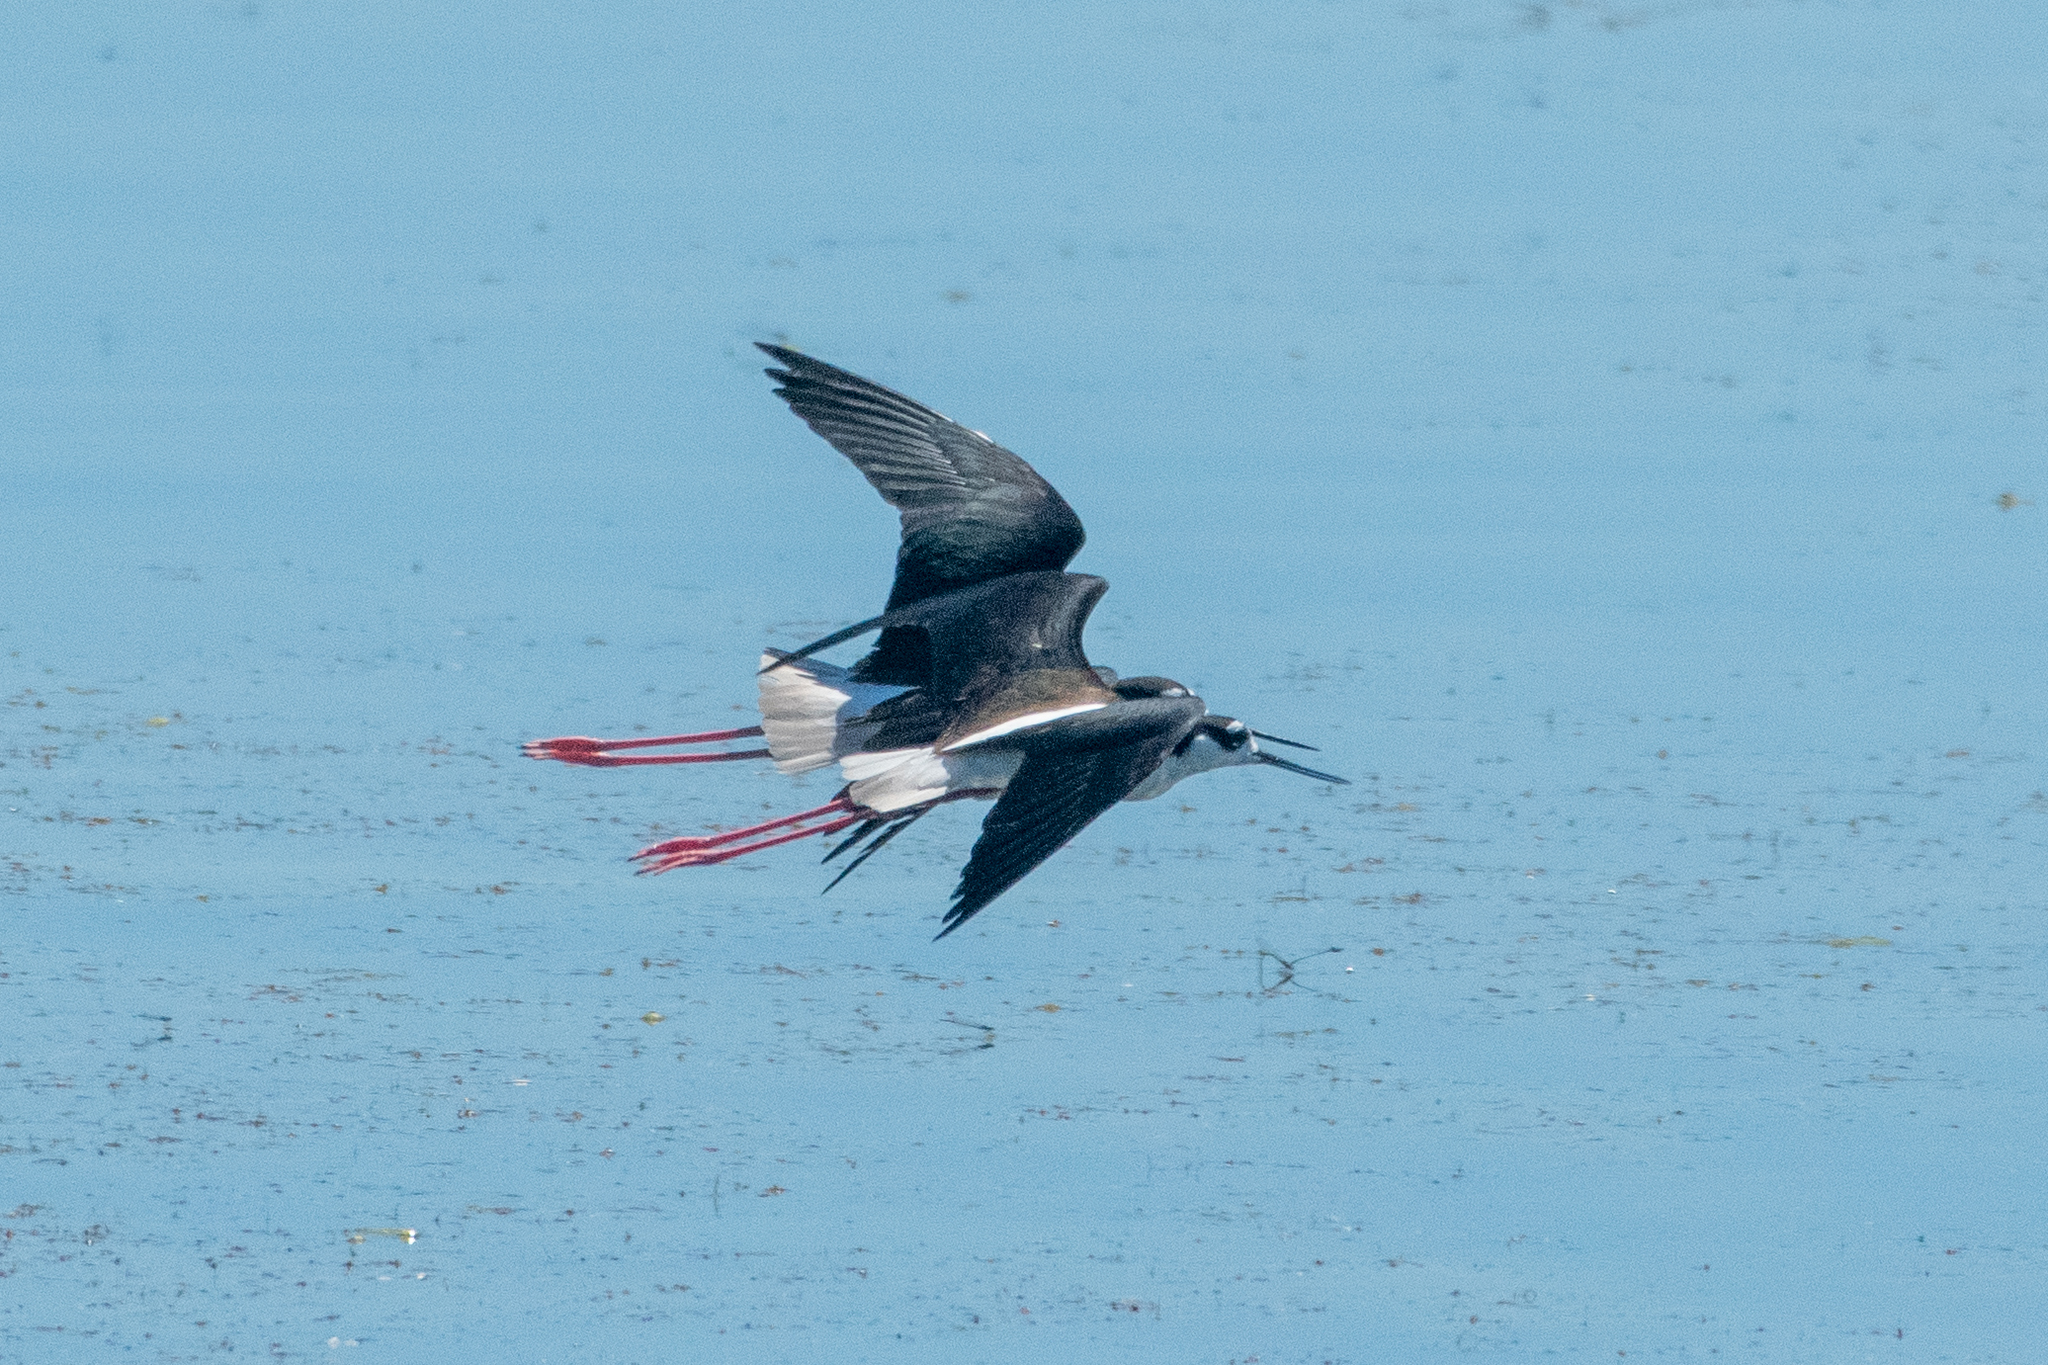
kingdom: Animalia
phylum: Chordata
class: Aves
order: Charadriiformes
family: Recurvirostridae
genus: Himantopus
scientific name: Himantopus mexicanus
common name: Black-necked stilt
